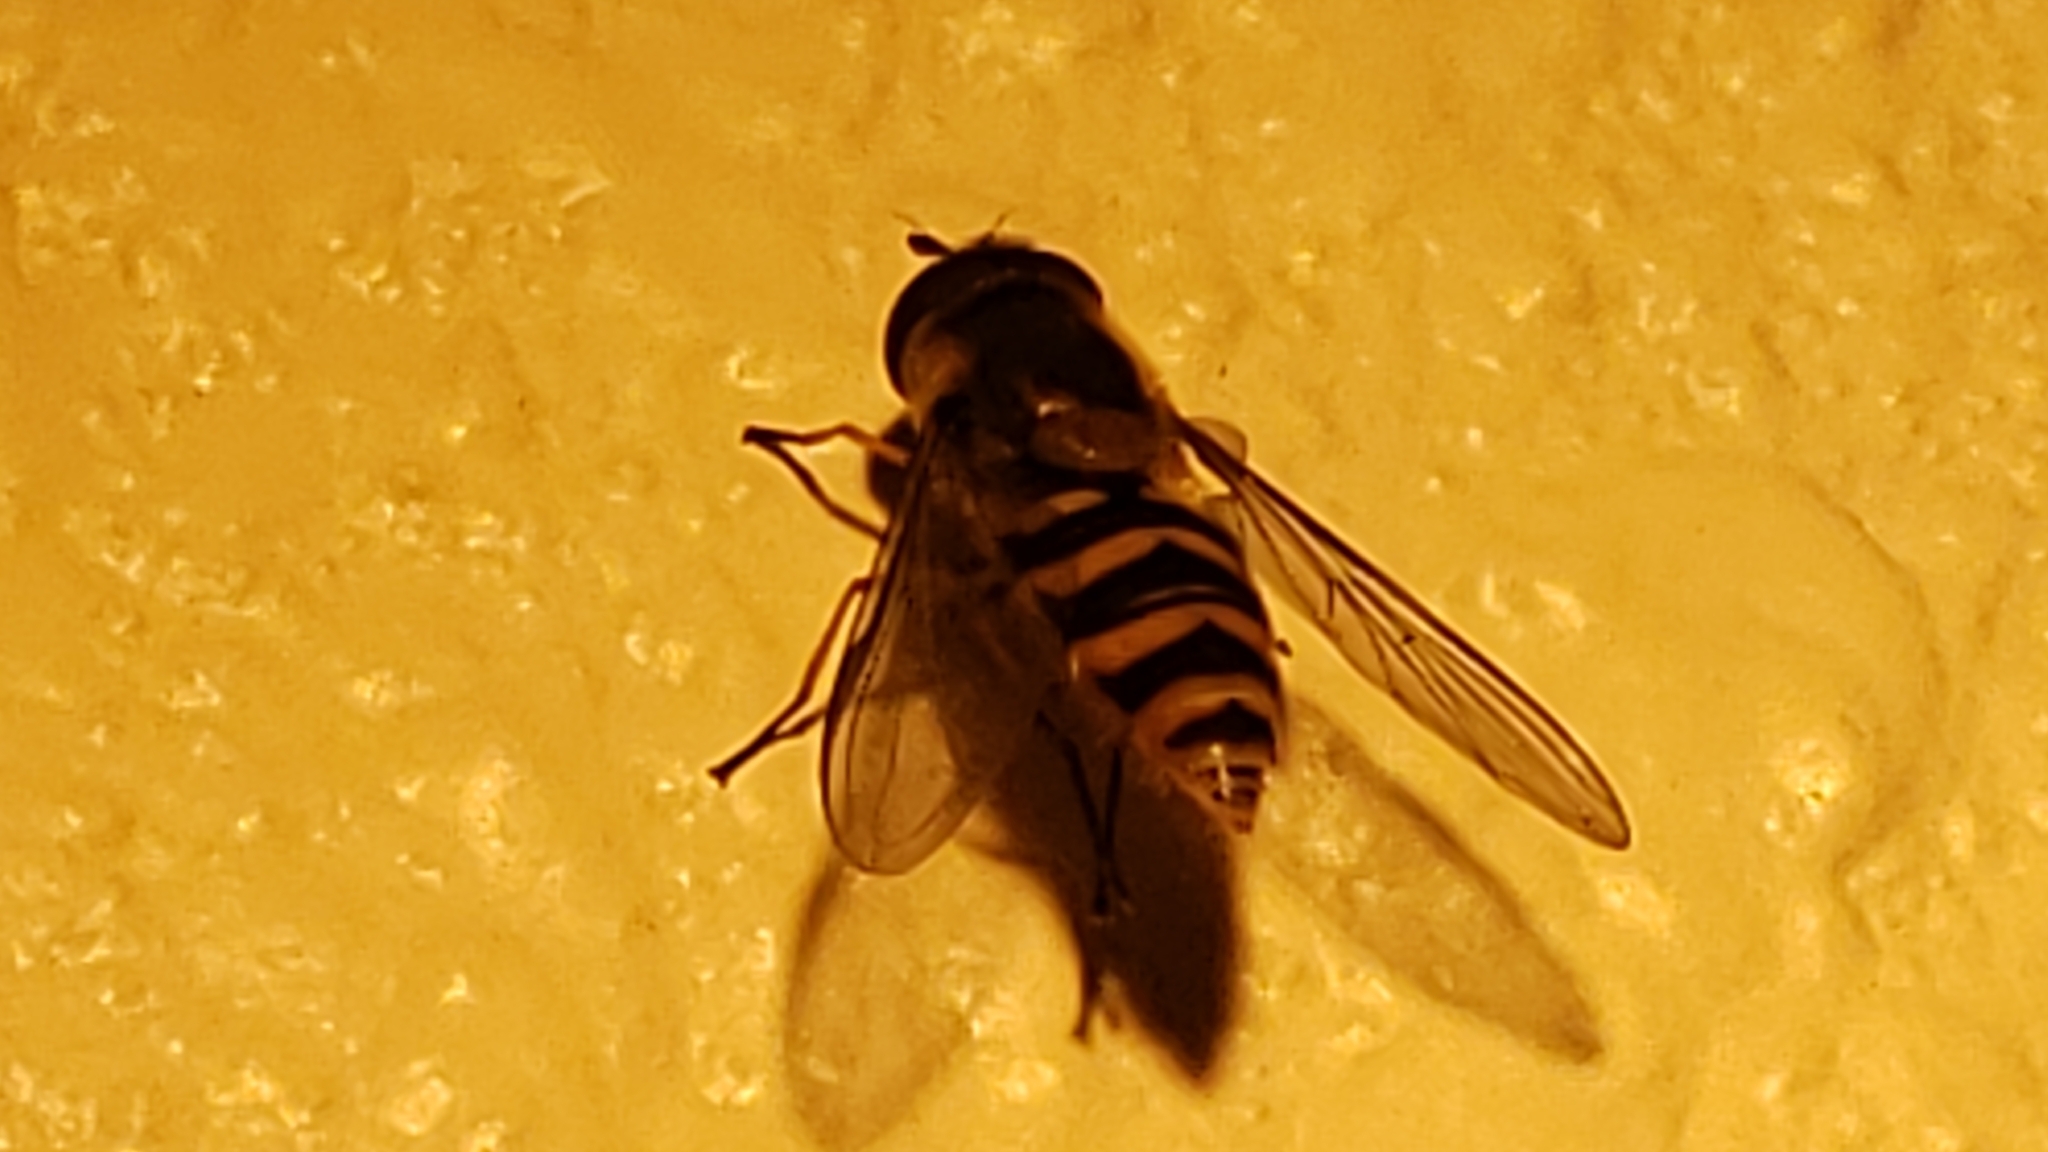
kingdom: Animalia
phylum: Arthropoda
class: Insecta
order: Diptera
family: Syrphidae
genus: Syrphus
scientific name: Syrphus
